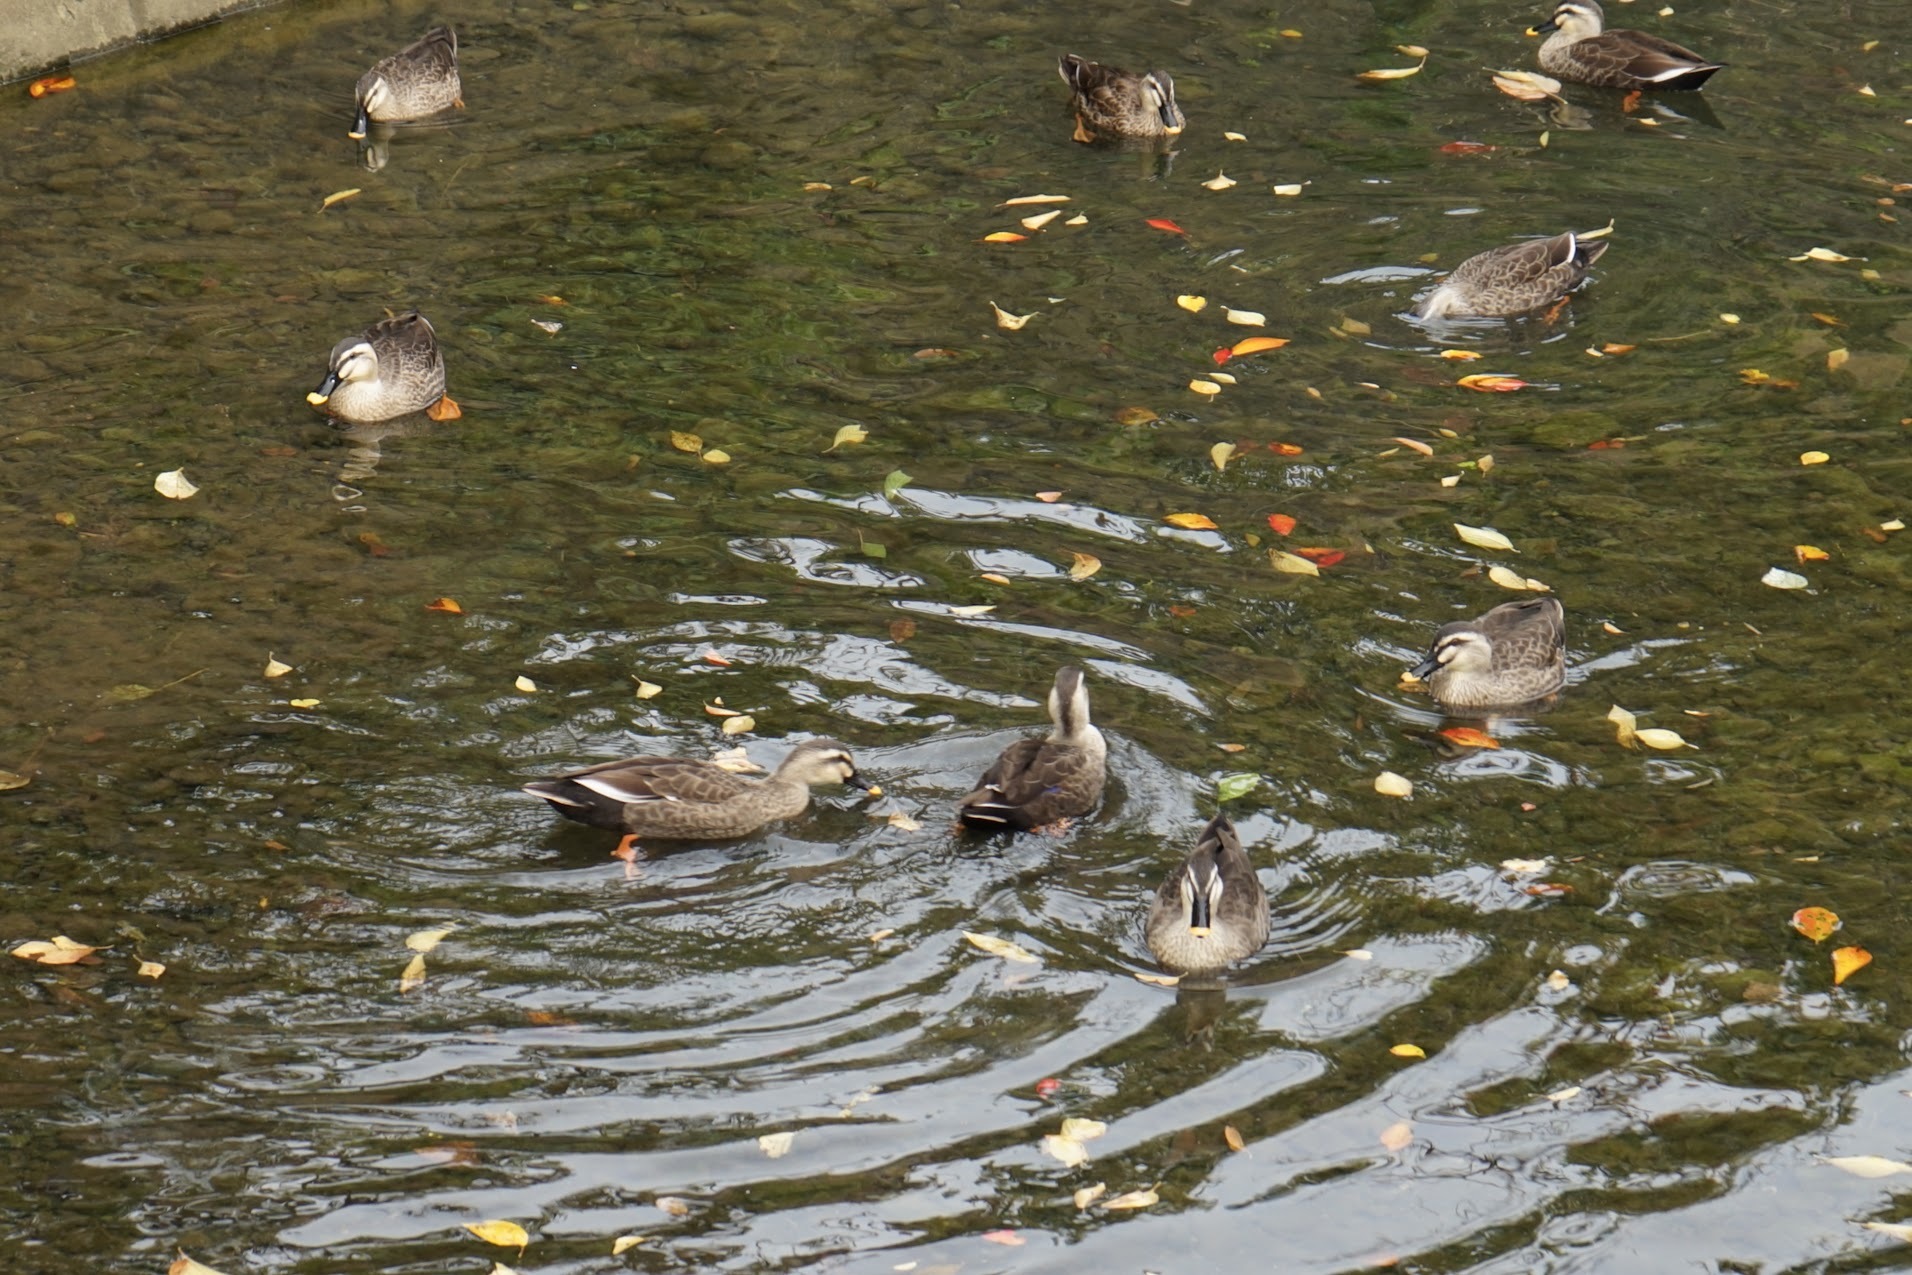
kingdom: Animalia
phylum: Chordata
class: Aves
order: Anseriformes
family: Anatidae
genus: Anas
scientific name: Anas zonorhyncha
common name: Eastern spot-billed duck
